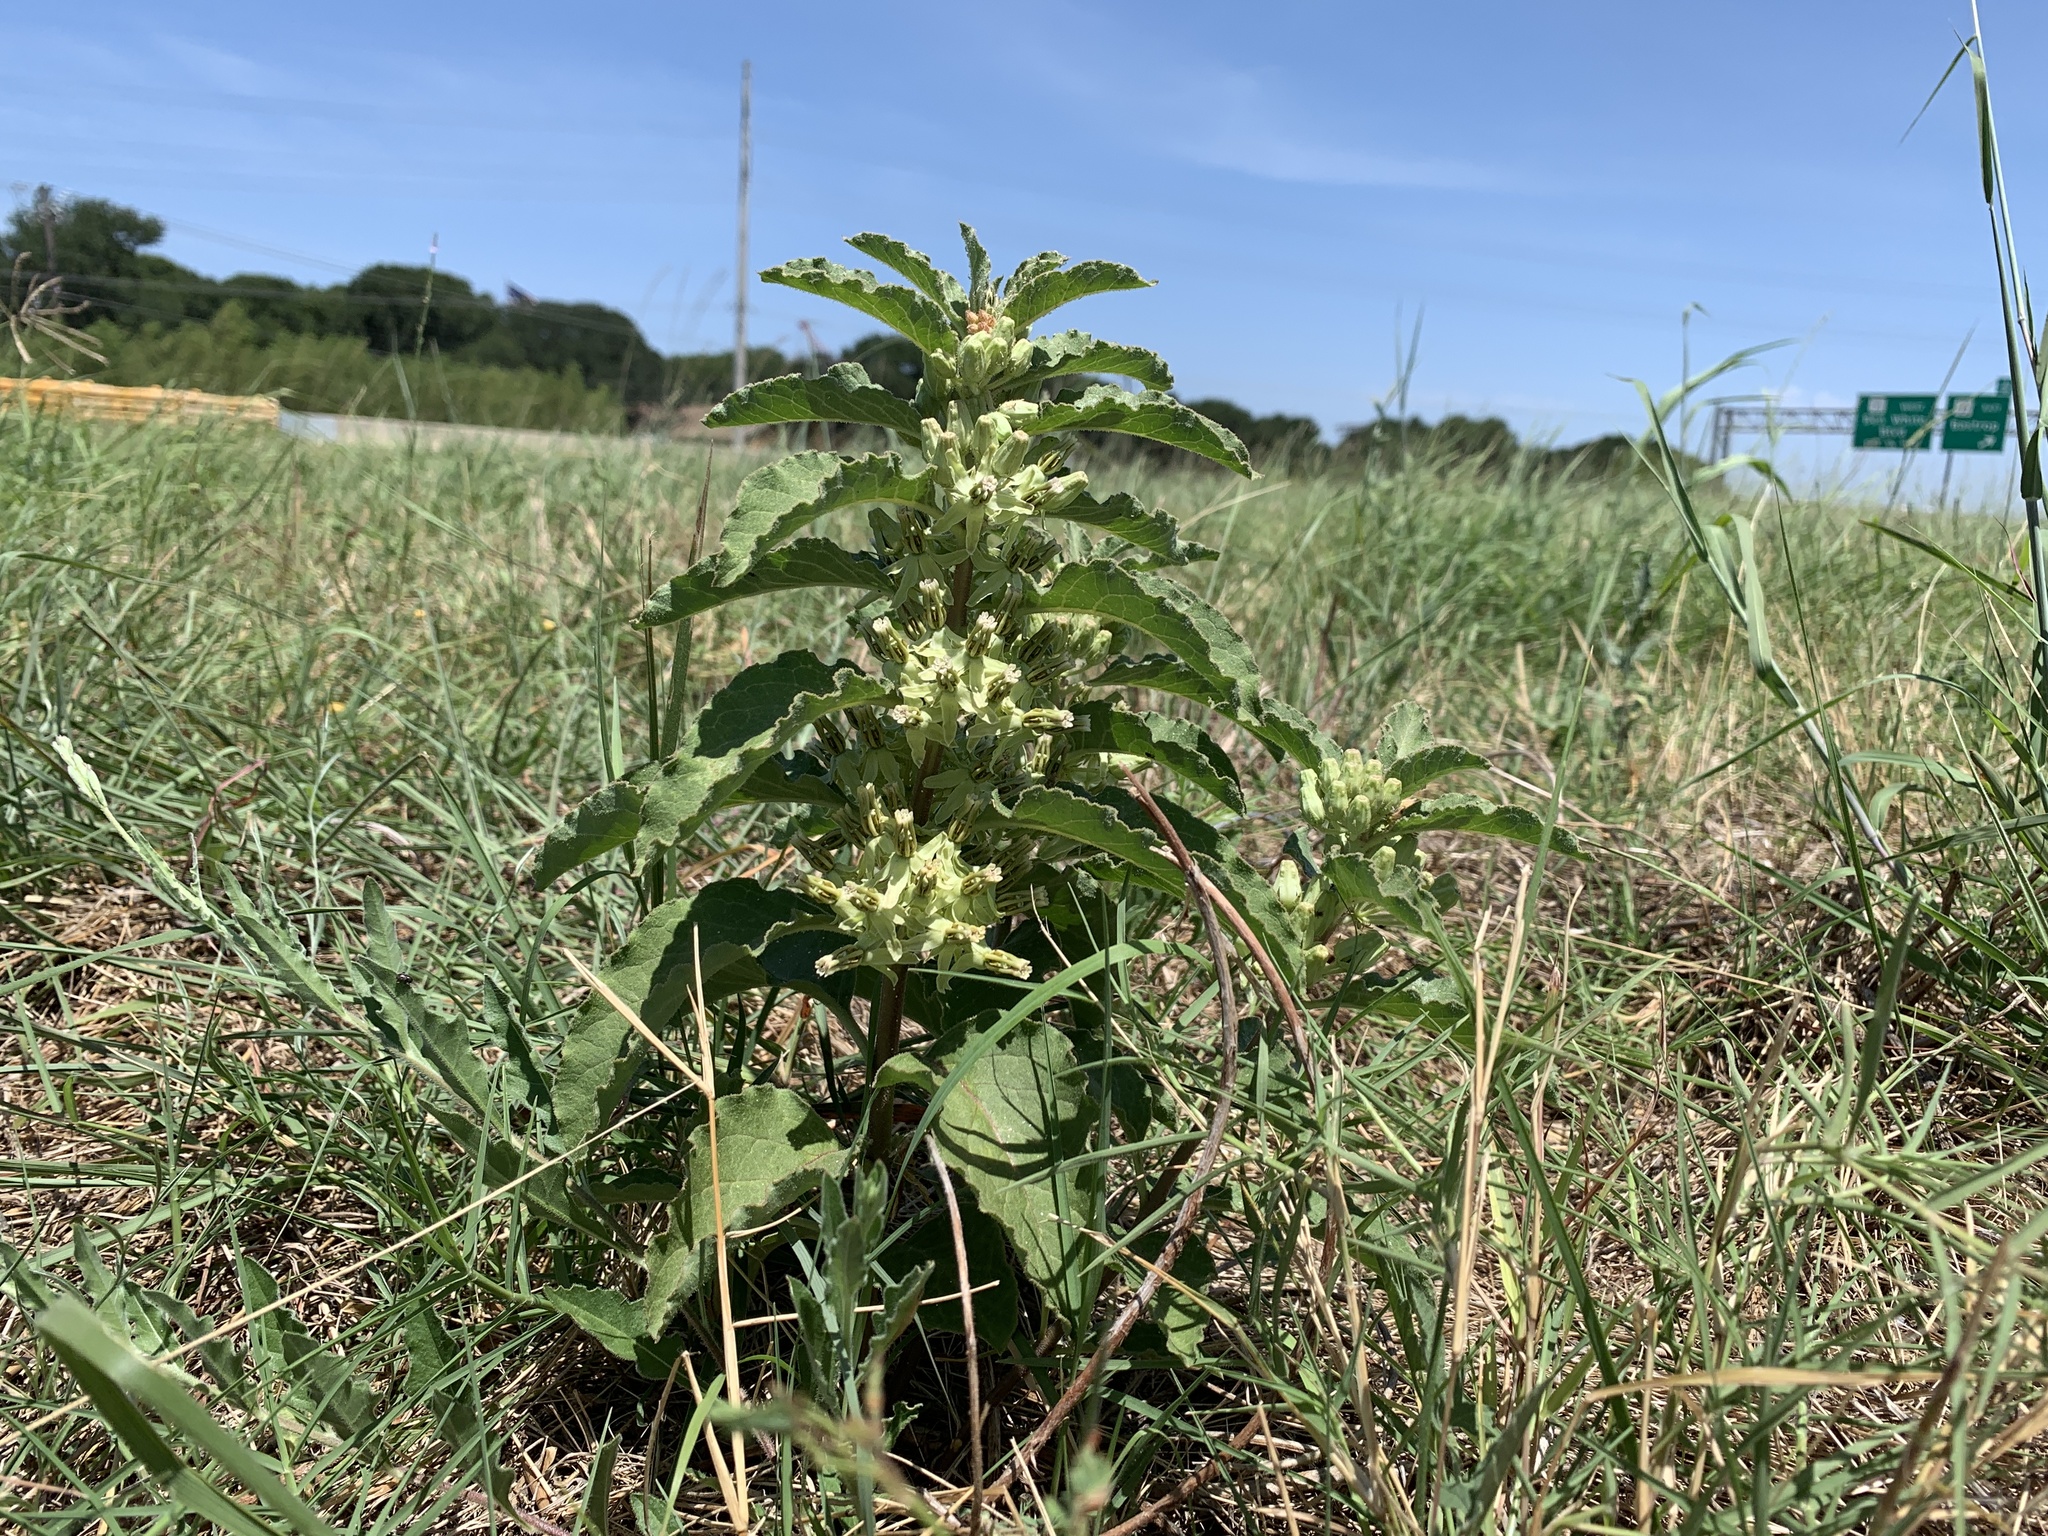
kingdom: Plantae
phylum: Tracheophyta
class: Magnoliopsida
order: Gentianales
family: Apocynaceae
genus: Asclepias
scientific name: Asclepias oenotheroides
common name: Zizotes milkweed
